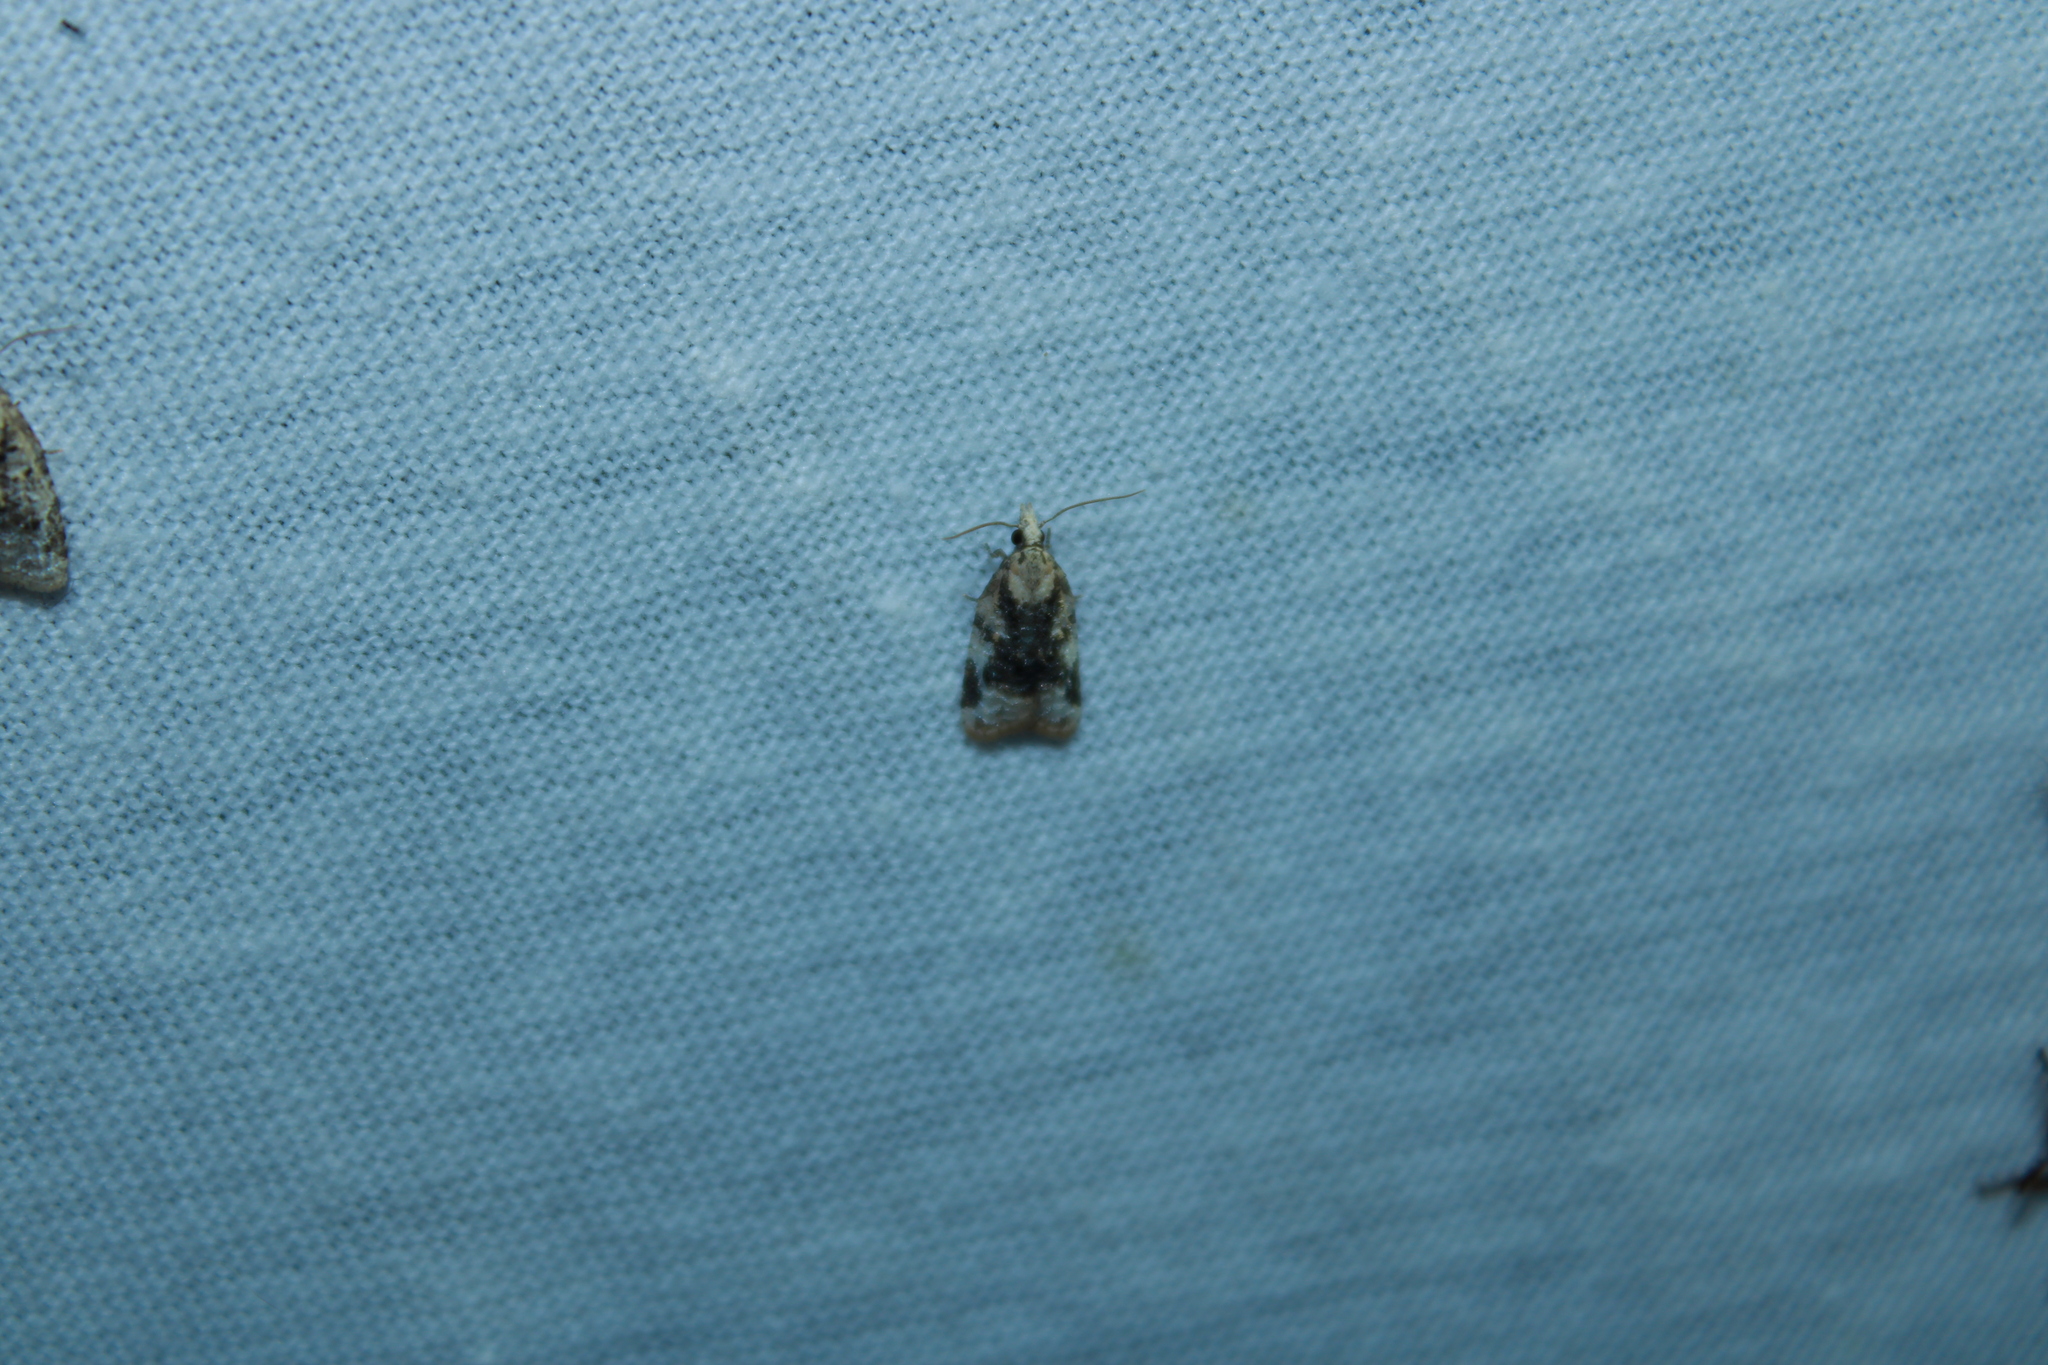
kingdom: Animalia
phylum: Arthropoda
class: Insecta
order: Lepidoptera
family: Tortricidae
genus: Platynota
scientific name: Platynota exasperatana
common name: Exasperating platynota moth
